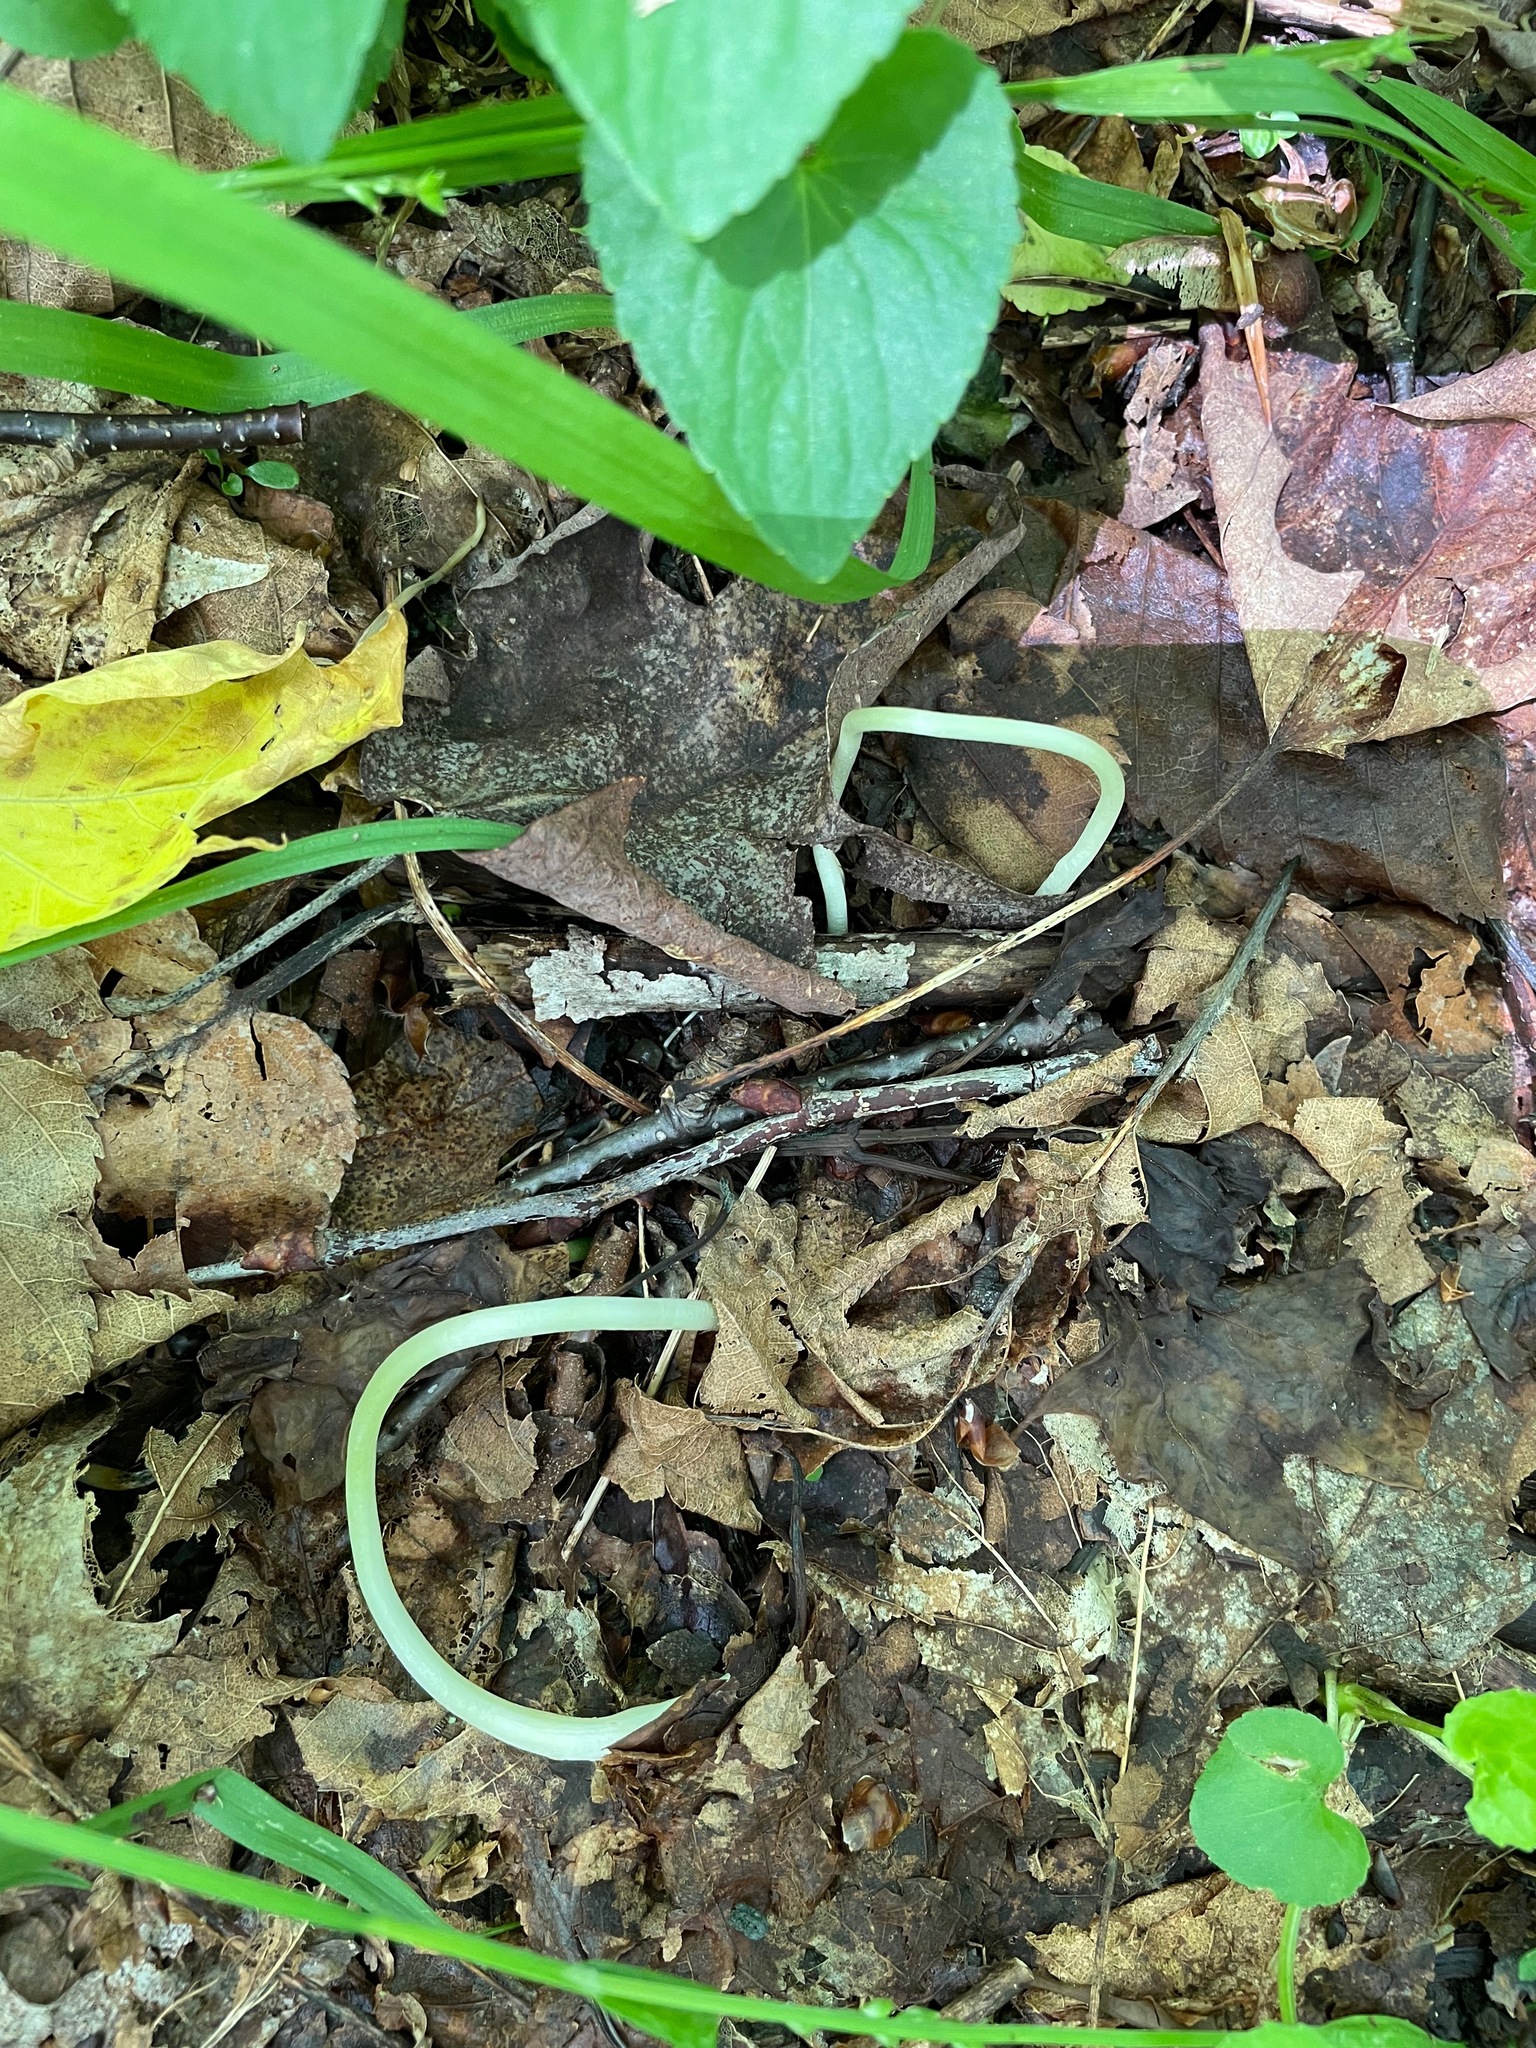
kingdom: Plantae
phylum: Tracheophyta
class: Liliopsida
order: Liliales
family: Liliaceae
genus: Erythronium
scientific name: Erythronium americanum
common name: Yellow adder's-tongue
